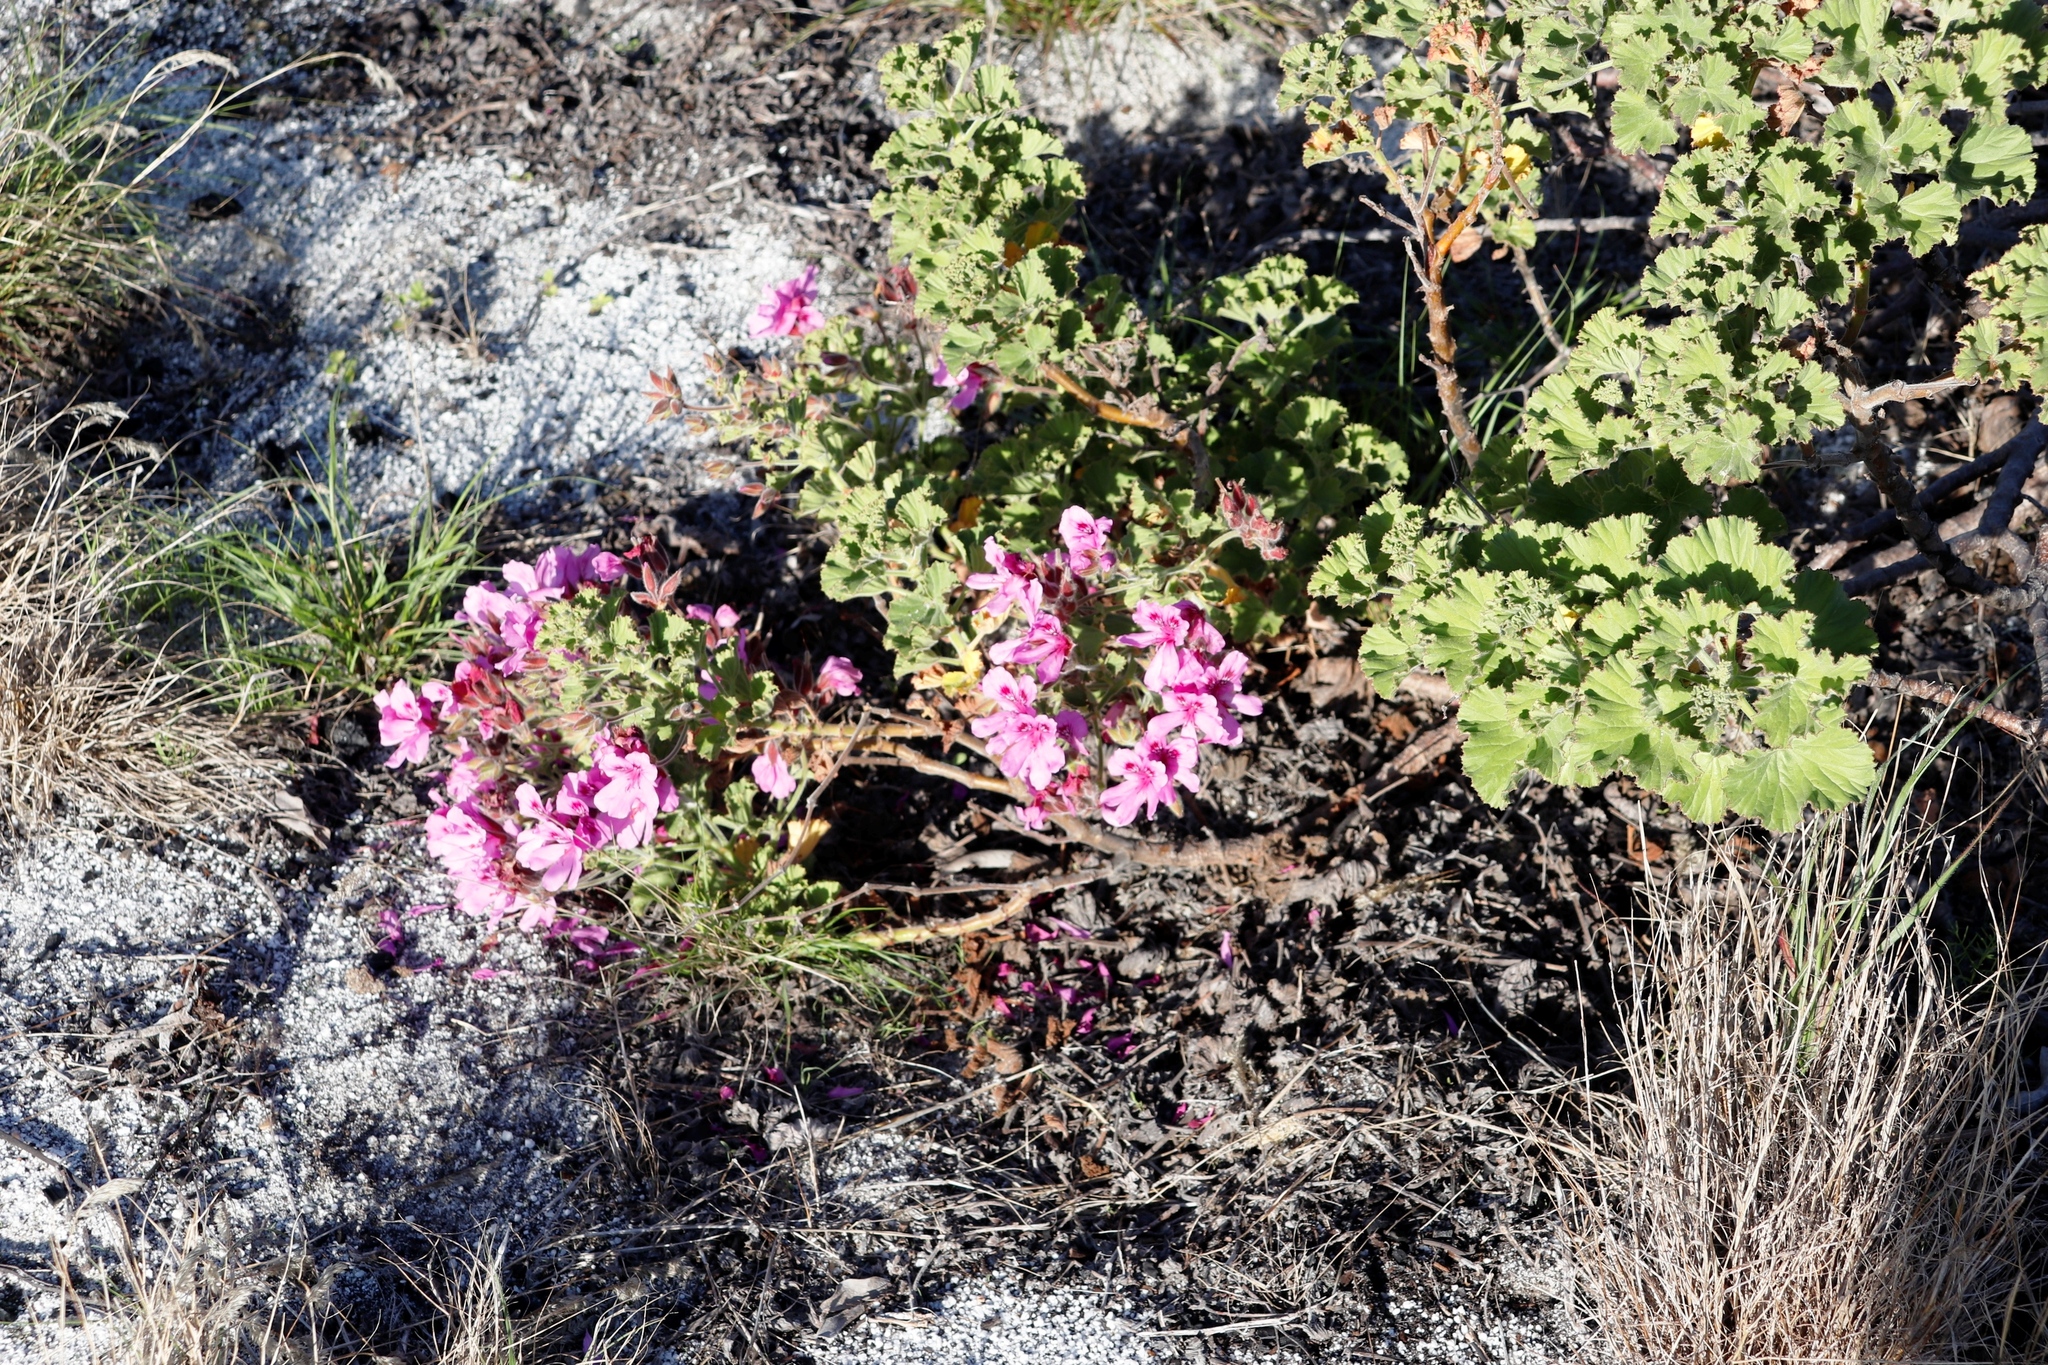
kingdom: Plantae
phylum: Tracheophyta
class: Magnoliopsida
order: Geraniales
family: Geraniaceae
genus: Pelargonium
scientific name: Pelargonium cucullatum
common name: Tree pelargonium
